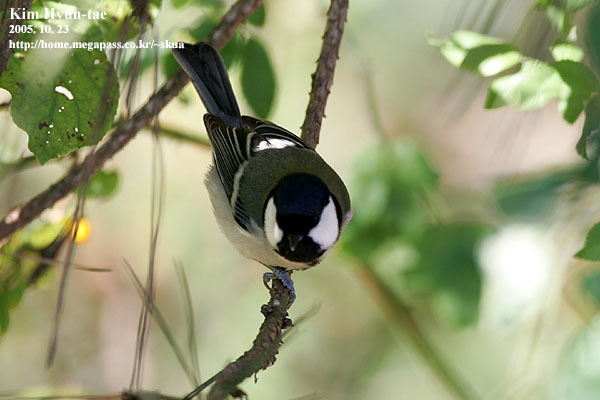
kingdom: Animalia
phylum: Chordata
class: Aves
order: Passeriformes
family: Paridae
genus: Parus
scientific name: Parus minor
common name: Japanese tit
